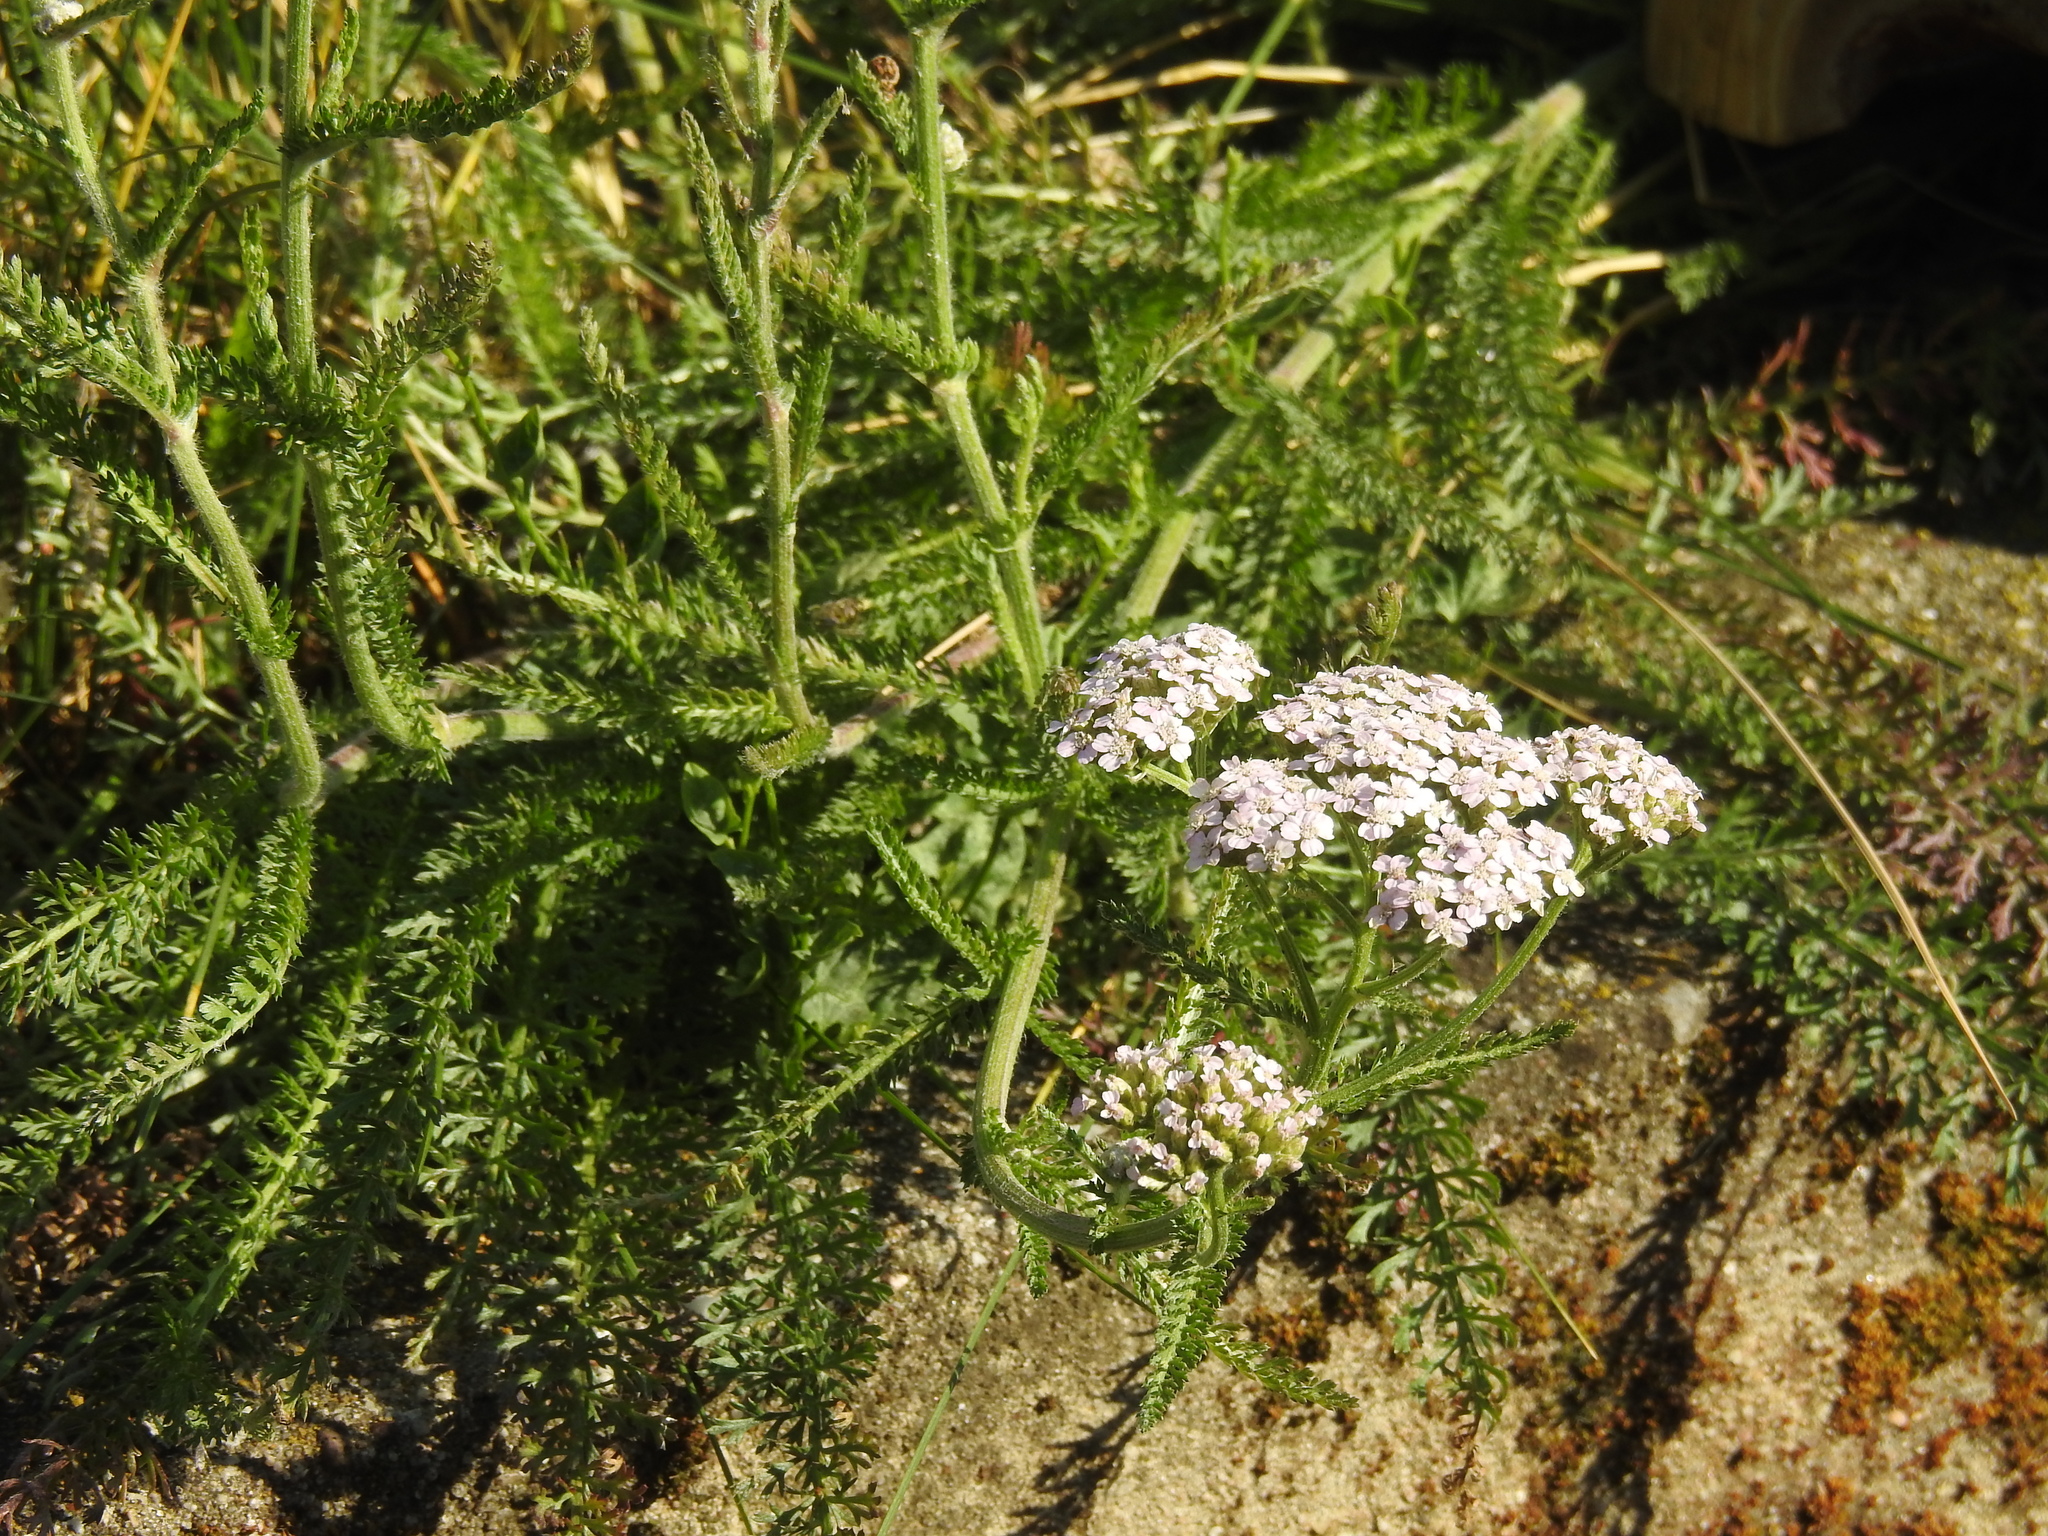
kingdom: Plantae
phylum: Tracheophyta
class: Magnoliopsida
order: Asterales
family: Asteraceae
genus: Achillea
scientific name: Achillea millefolium
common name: Yarrow
